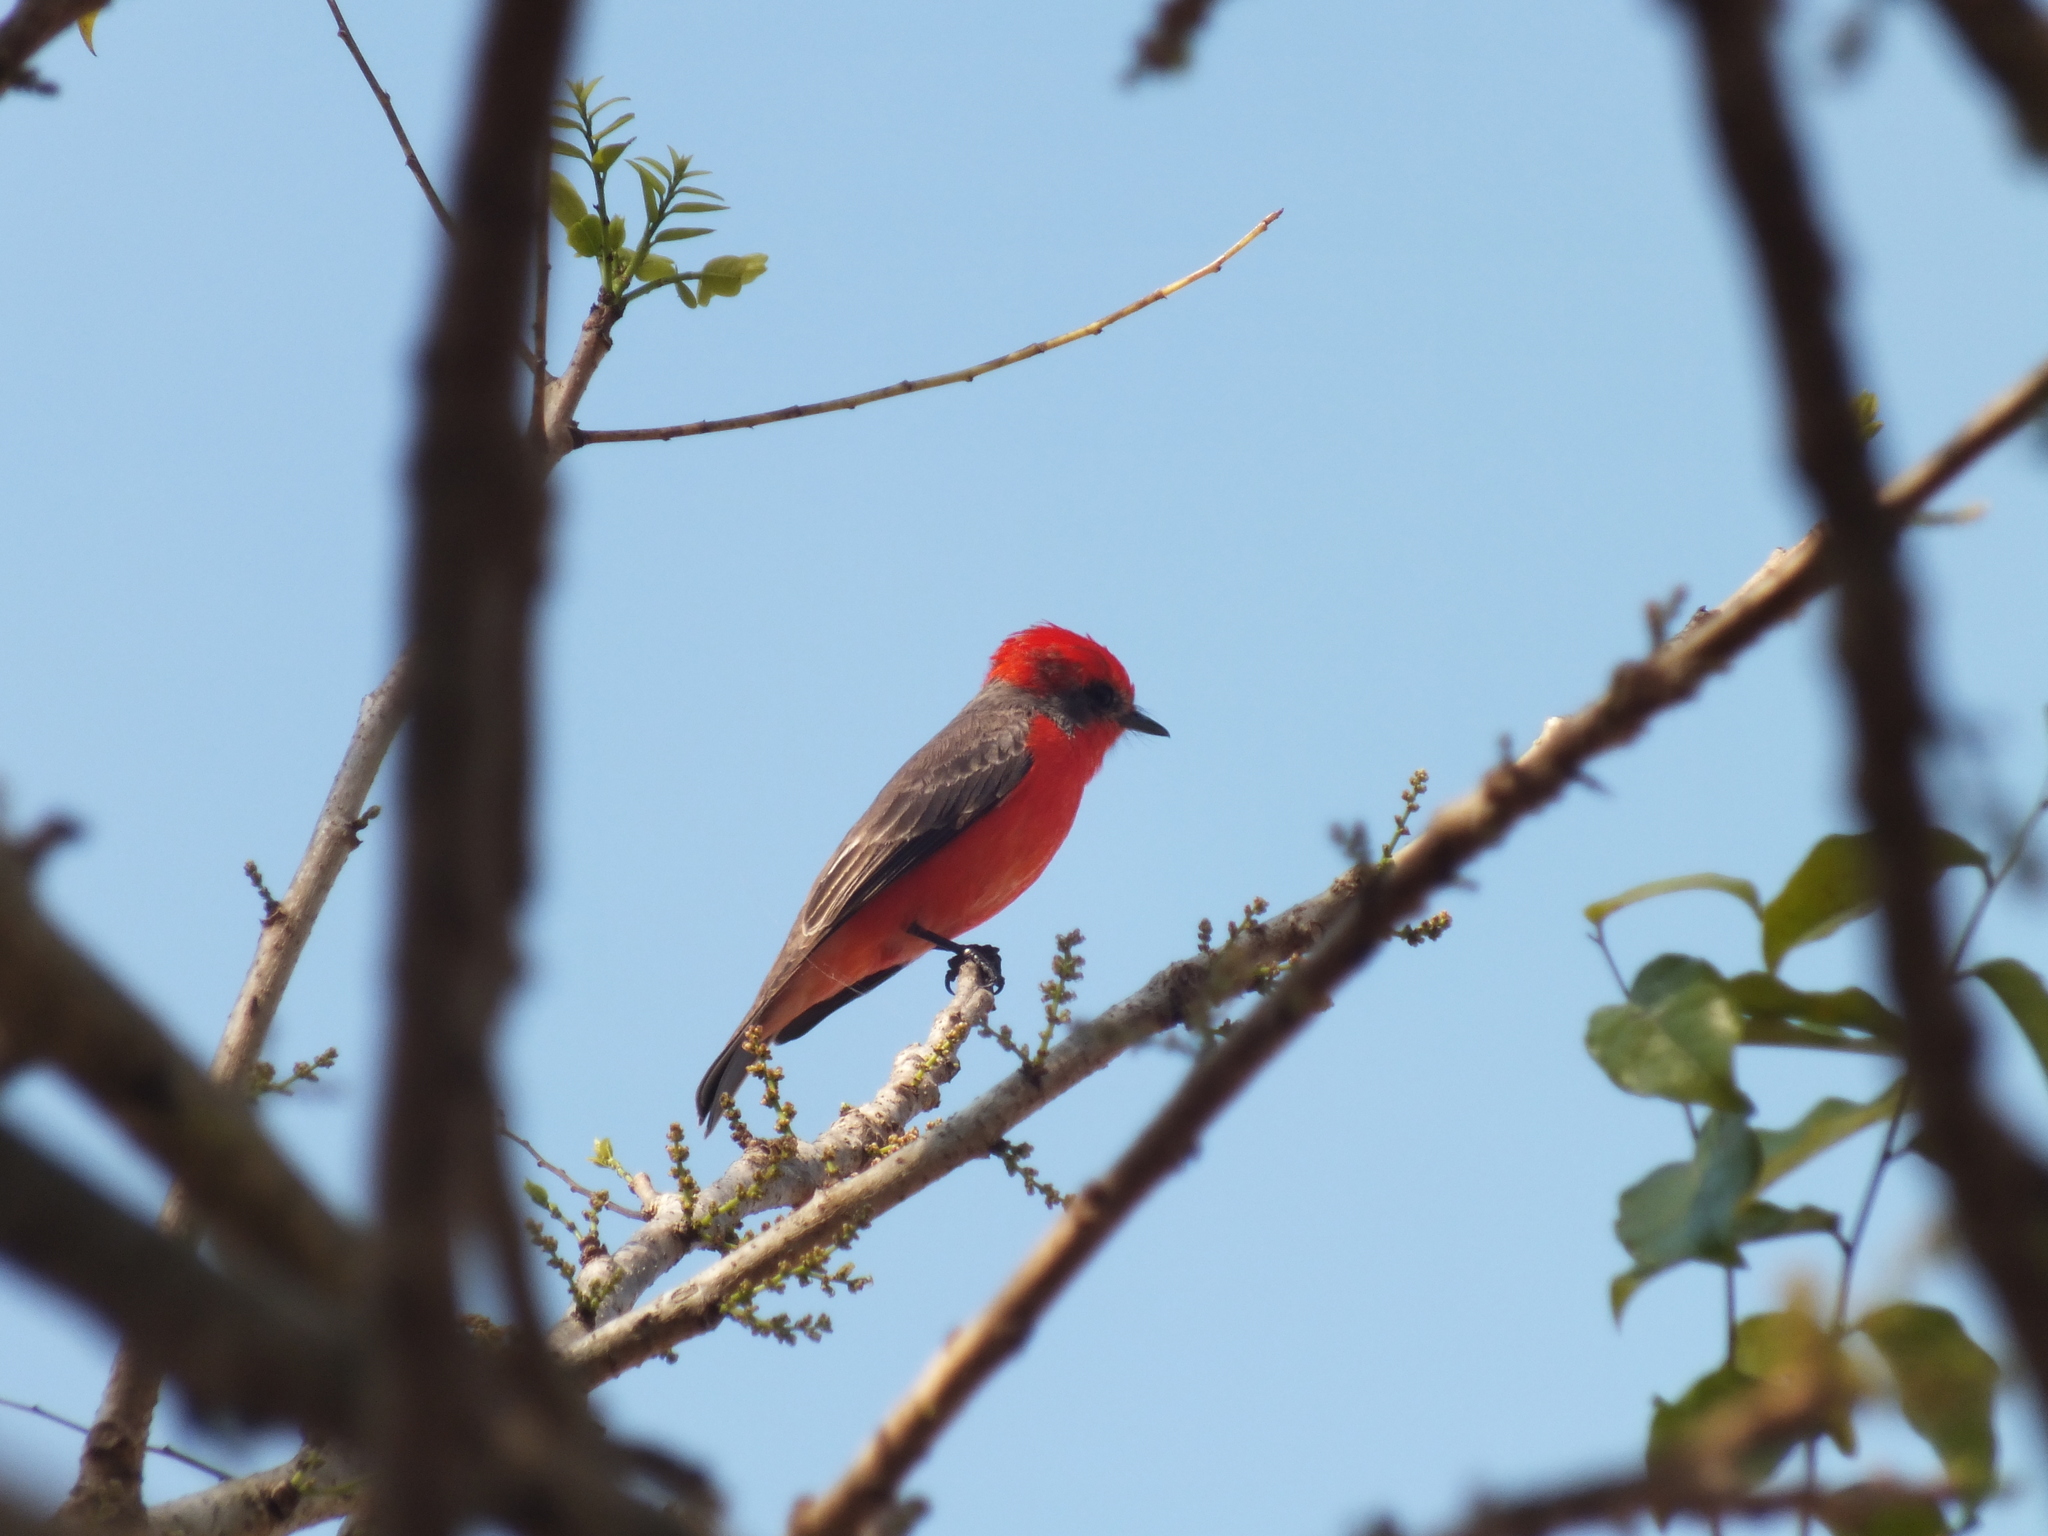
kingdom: Animalia
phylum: Chordata
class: Aves
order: Passeriformes
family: Tyrannidae
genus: Pyrocephalus
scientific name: Pyrocephalus rubinus
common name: Vermilion flycatcher
